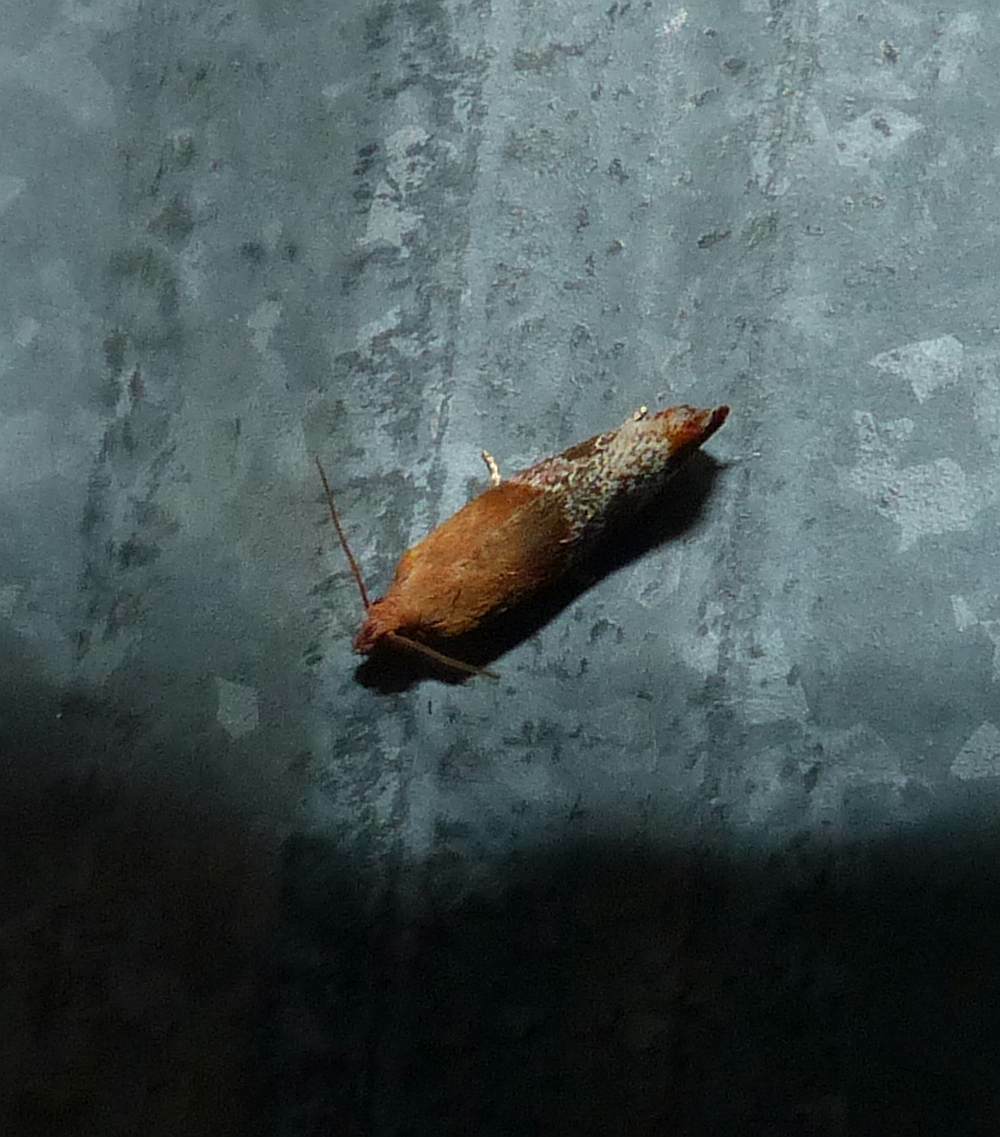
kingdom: Animalia
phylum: Arthropoda
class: Insecta
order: Lepidoptera
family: Tortricidae
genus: Epinotia
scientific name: Epinotia madderana
